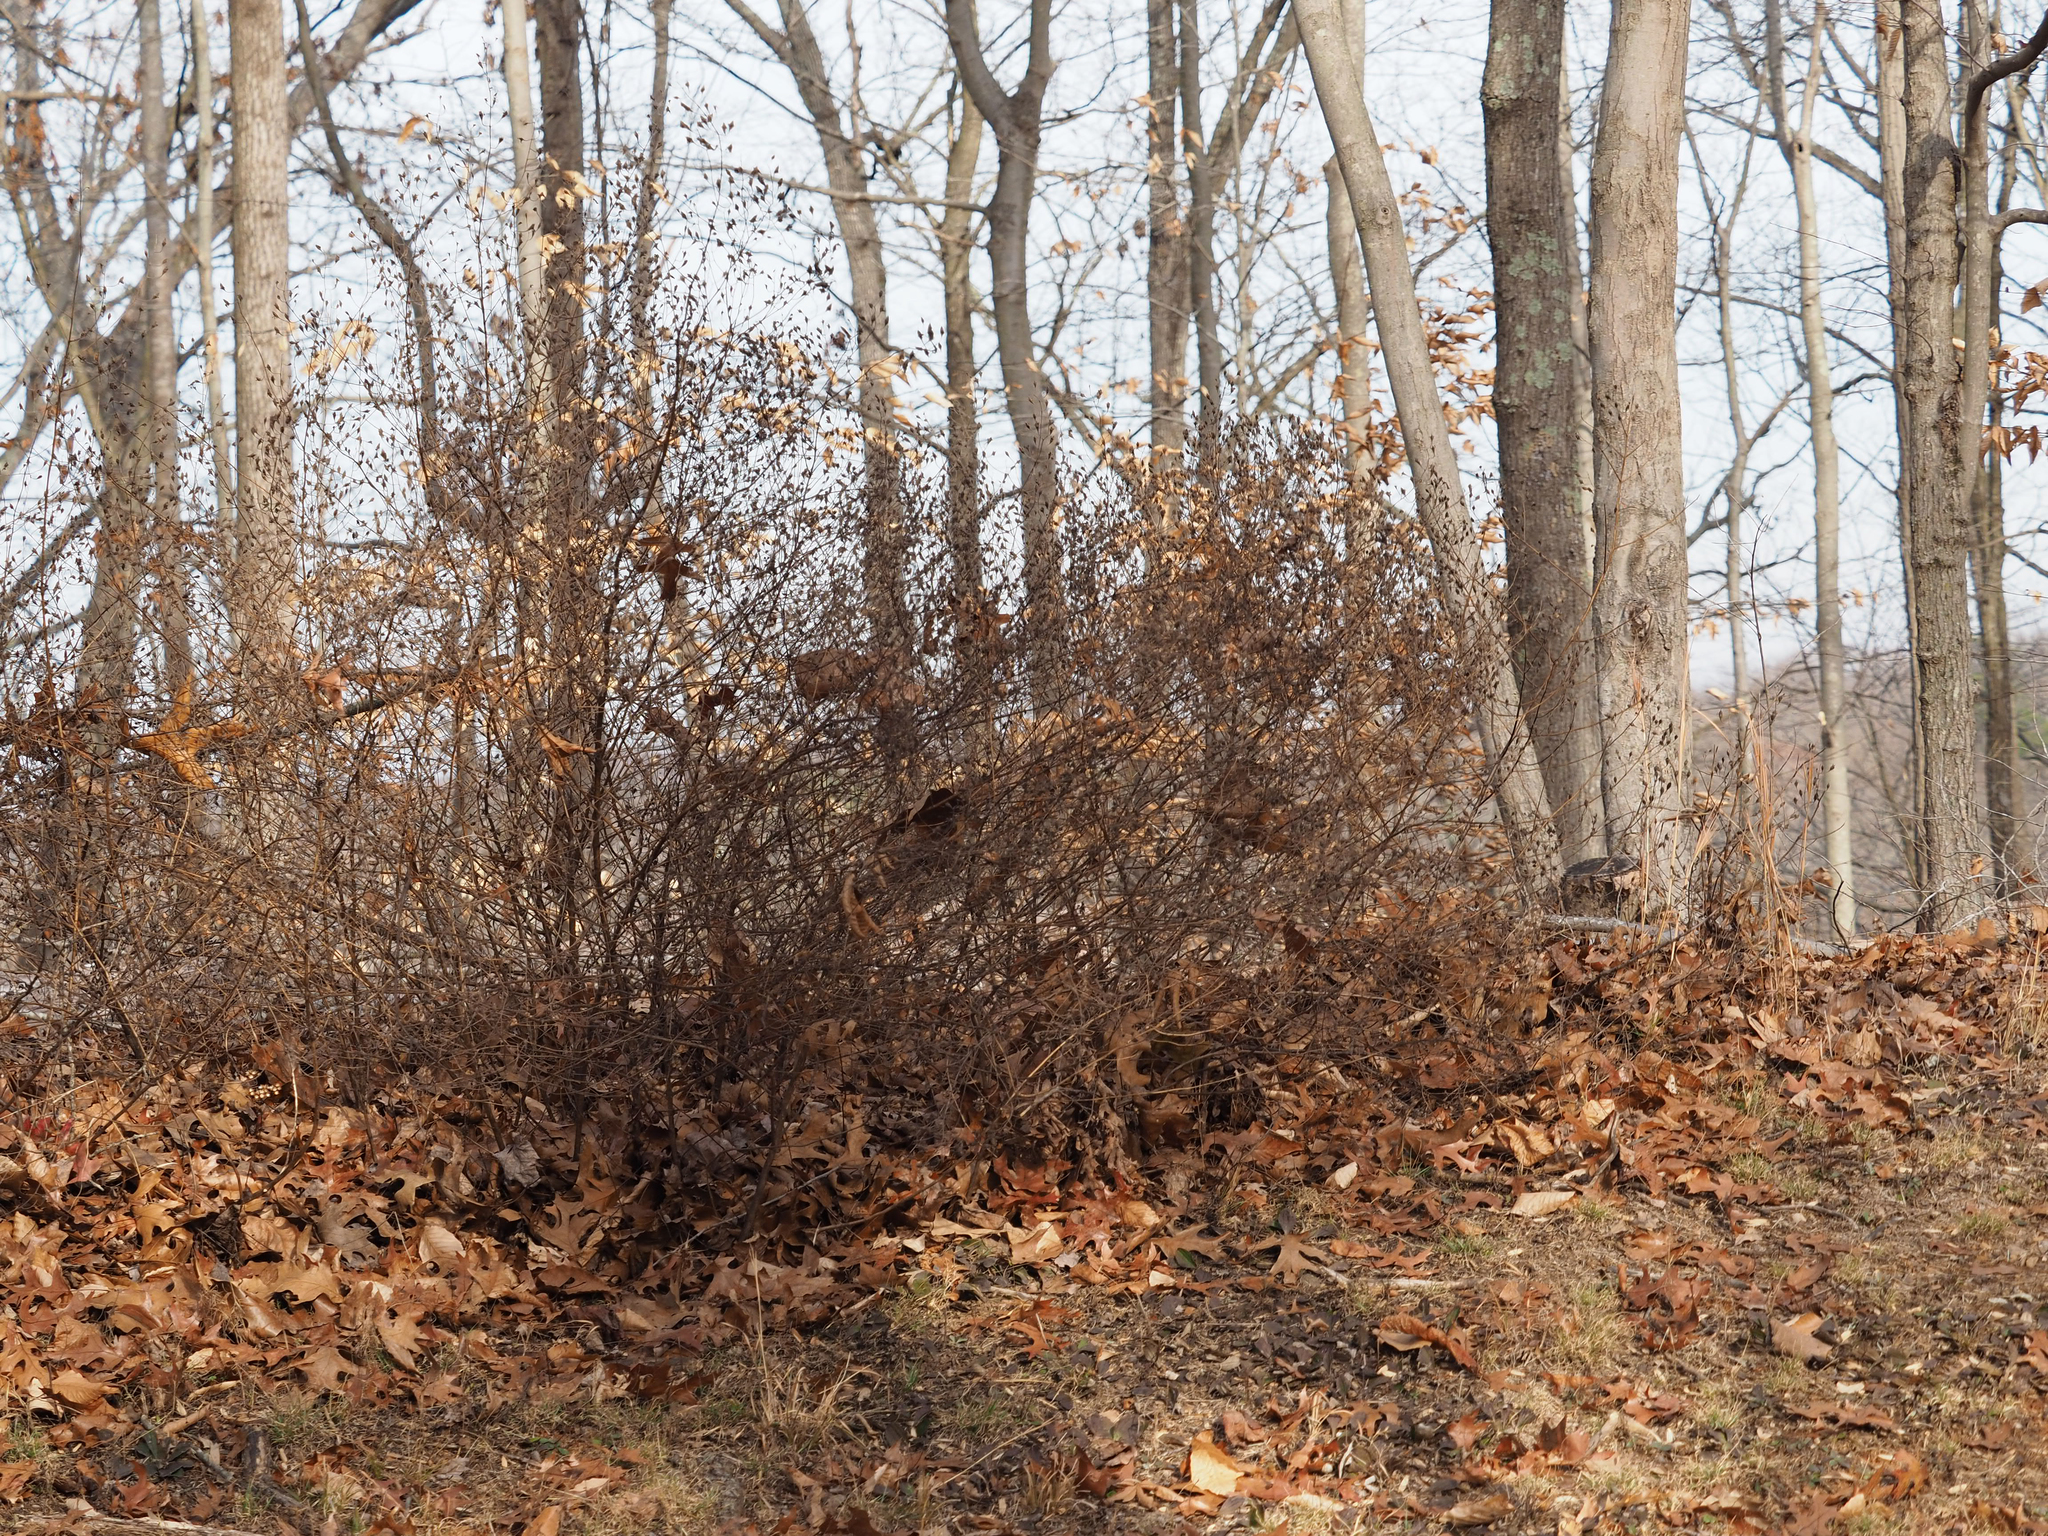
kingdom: Plantae
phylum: Tracheophyta
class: Magnoliopsida
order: Lamiales
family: Orobanchaceae
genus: Aureolaria
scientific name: Aureolaria pedicularia
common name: Annual false foxglove
